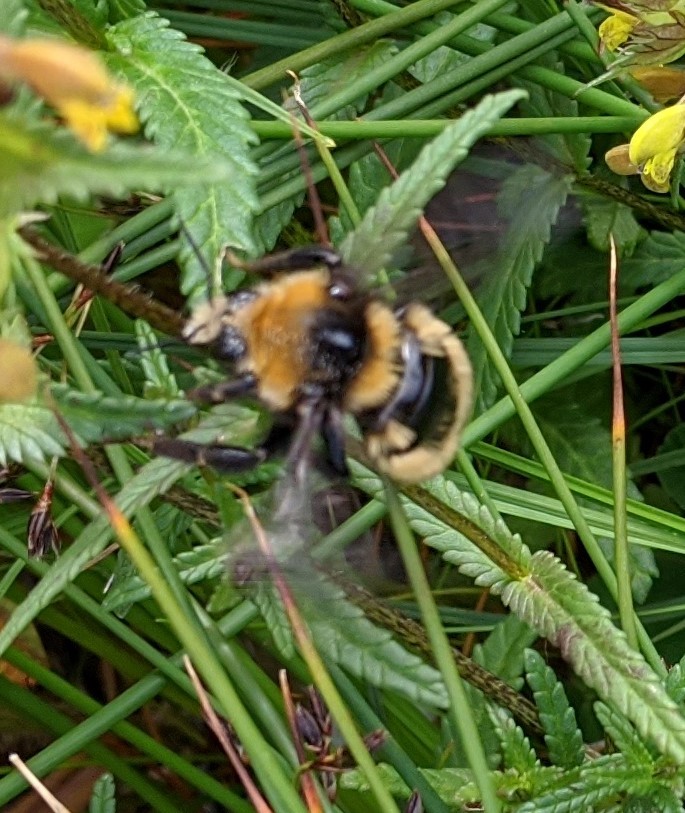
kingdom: Animalia
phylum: Arthropoda
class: Insecta
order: Hymenoptera
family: Apidae
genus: Bombus
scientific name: Bombus borealis
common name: Northern amber bumble bee
